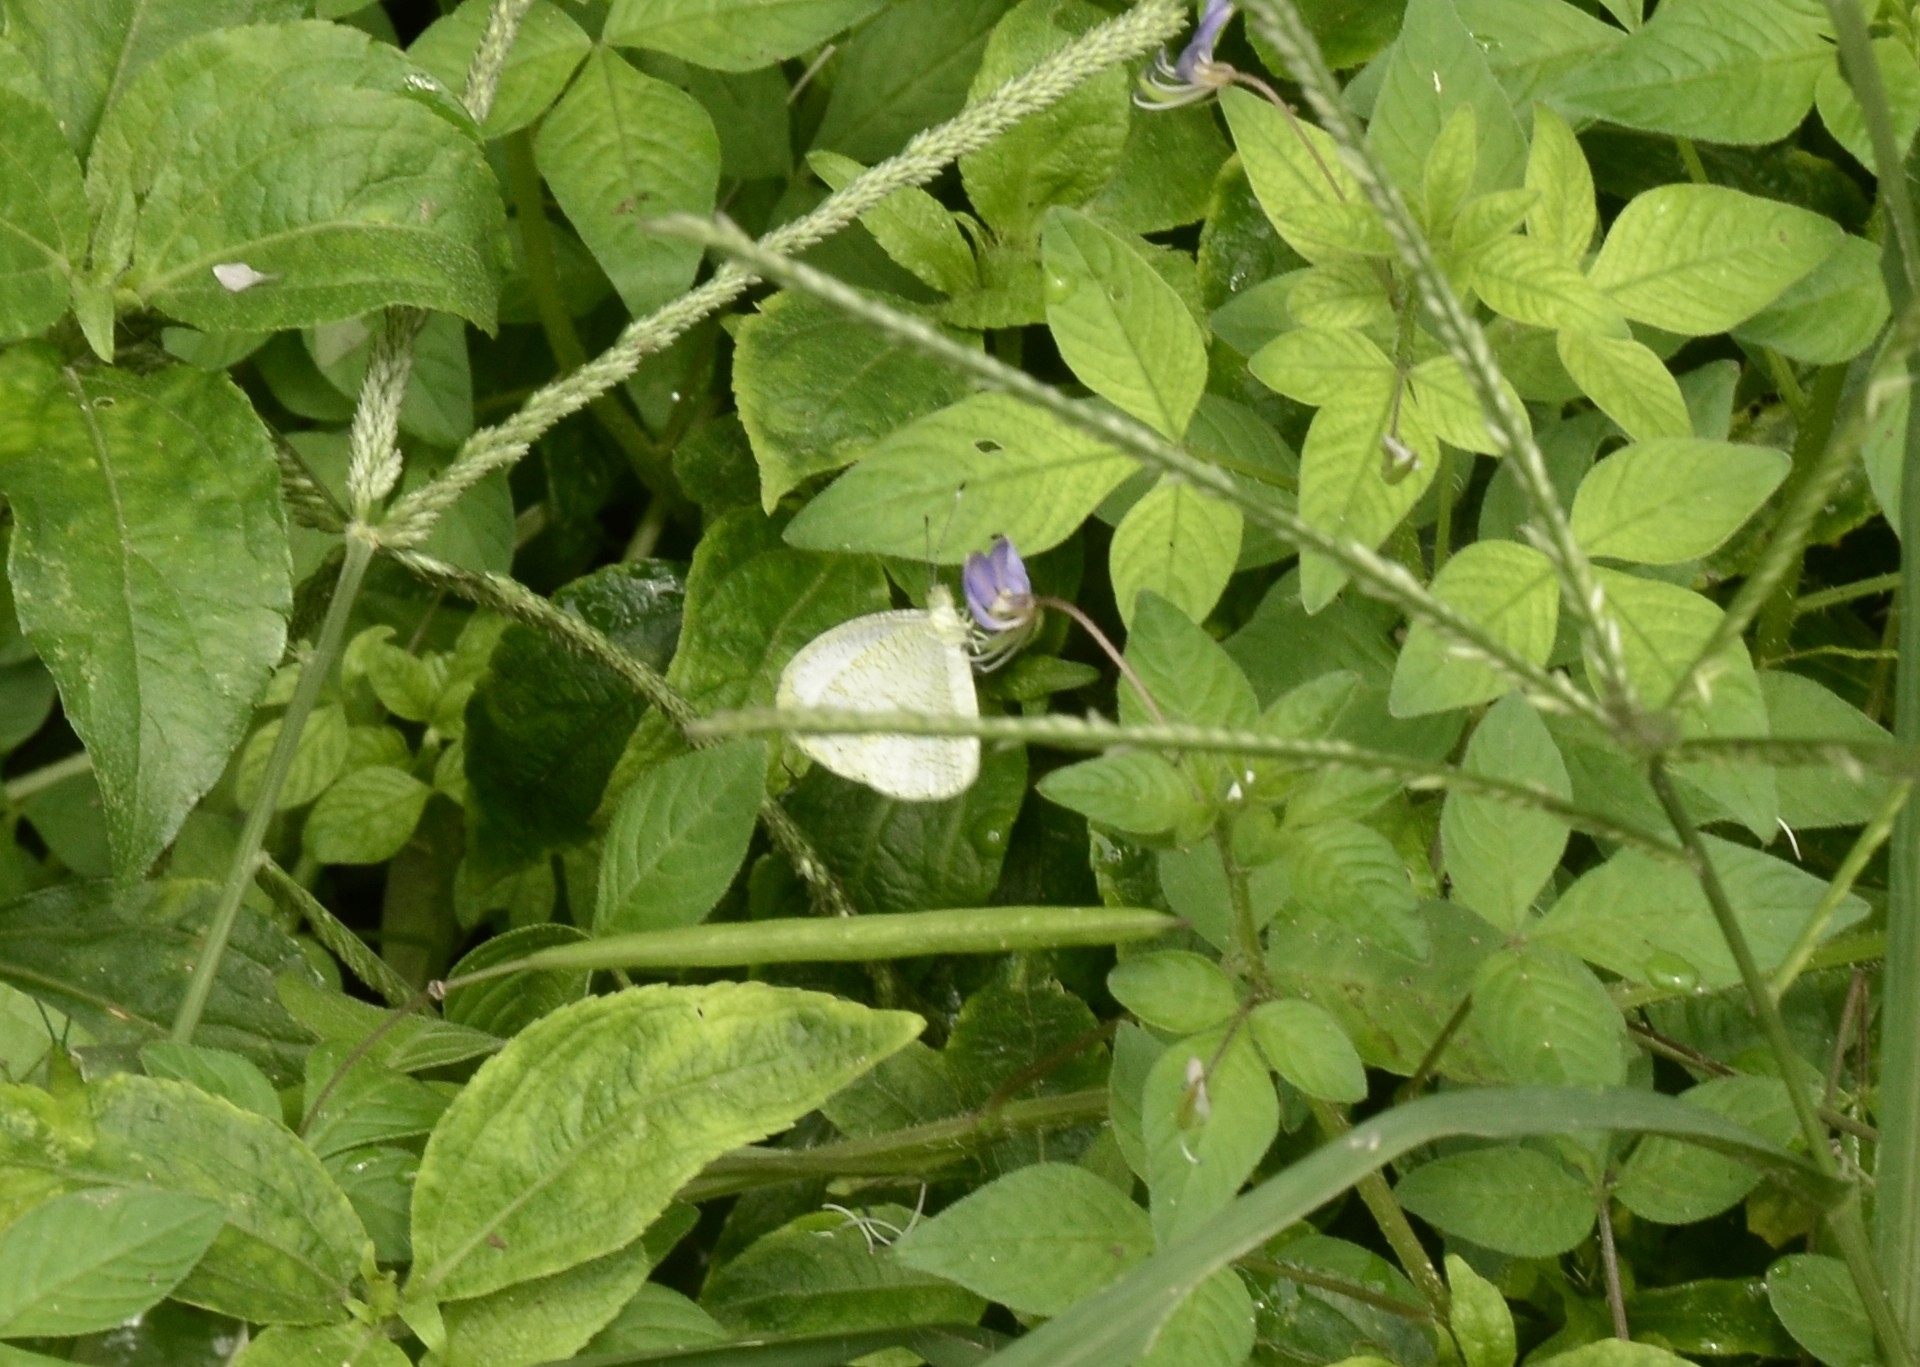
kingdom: Animalia
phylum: Arthropoda
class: Insecta
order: Lepidoptera
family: Pieridae
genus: Leptosia
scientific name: Leptosia nina
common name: Psyche
